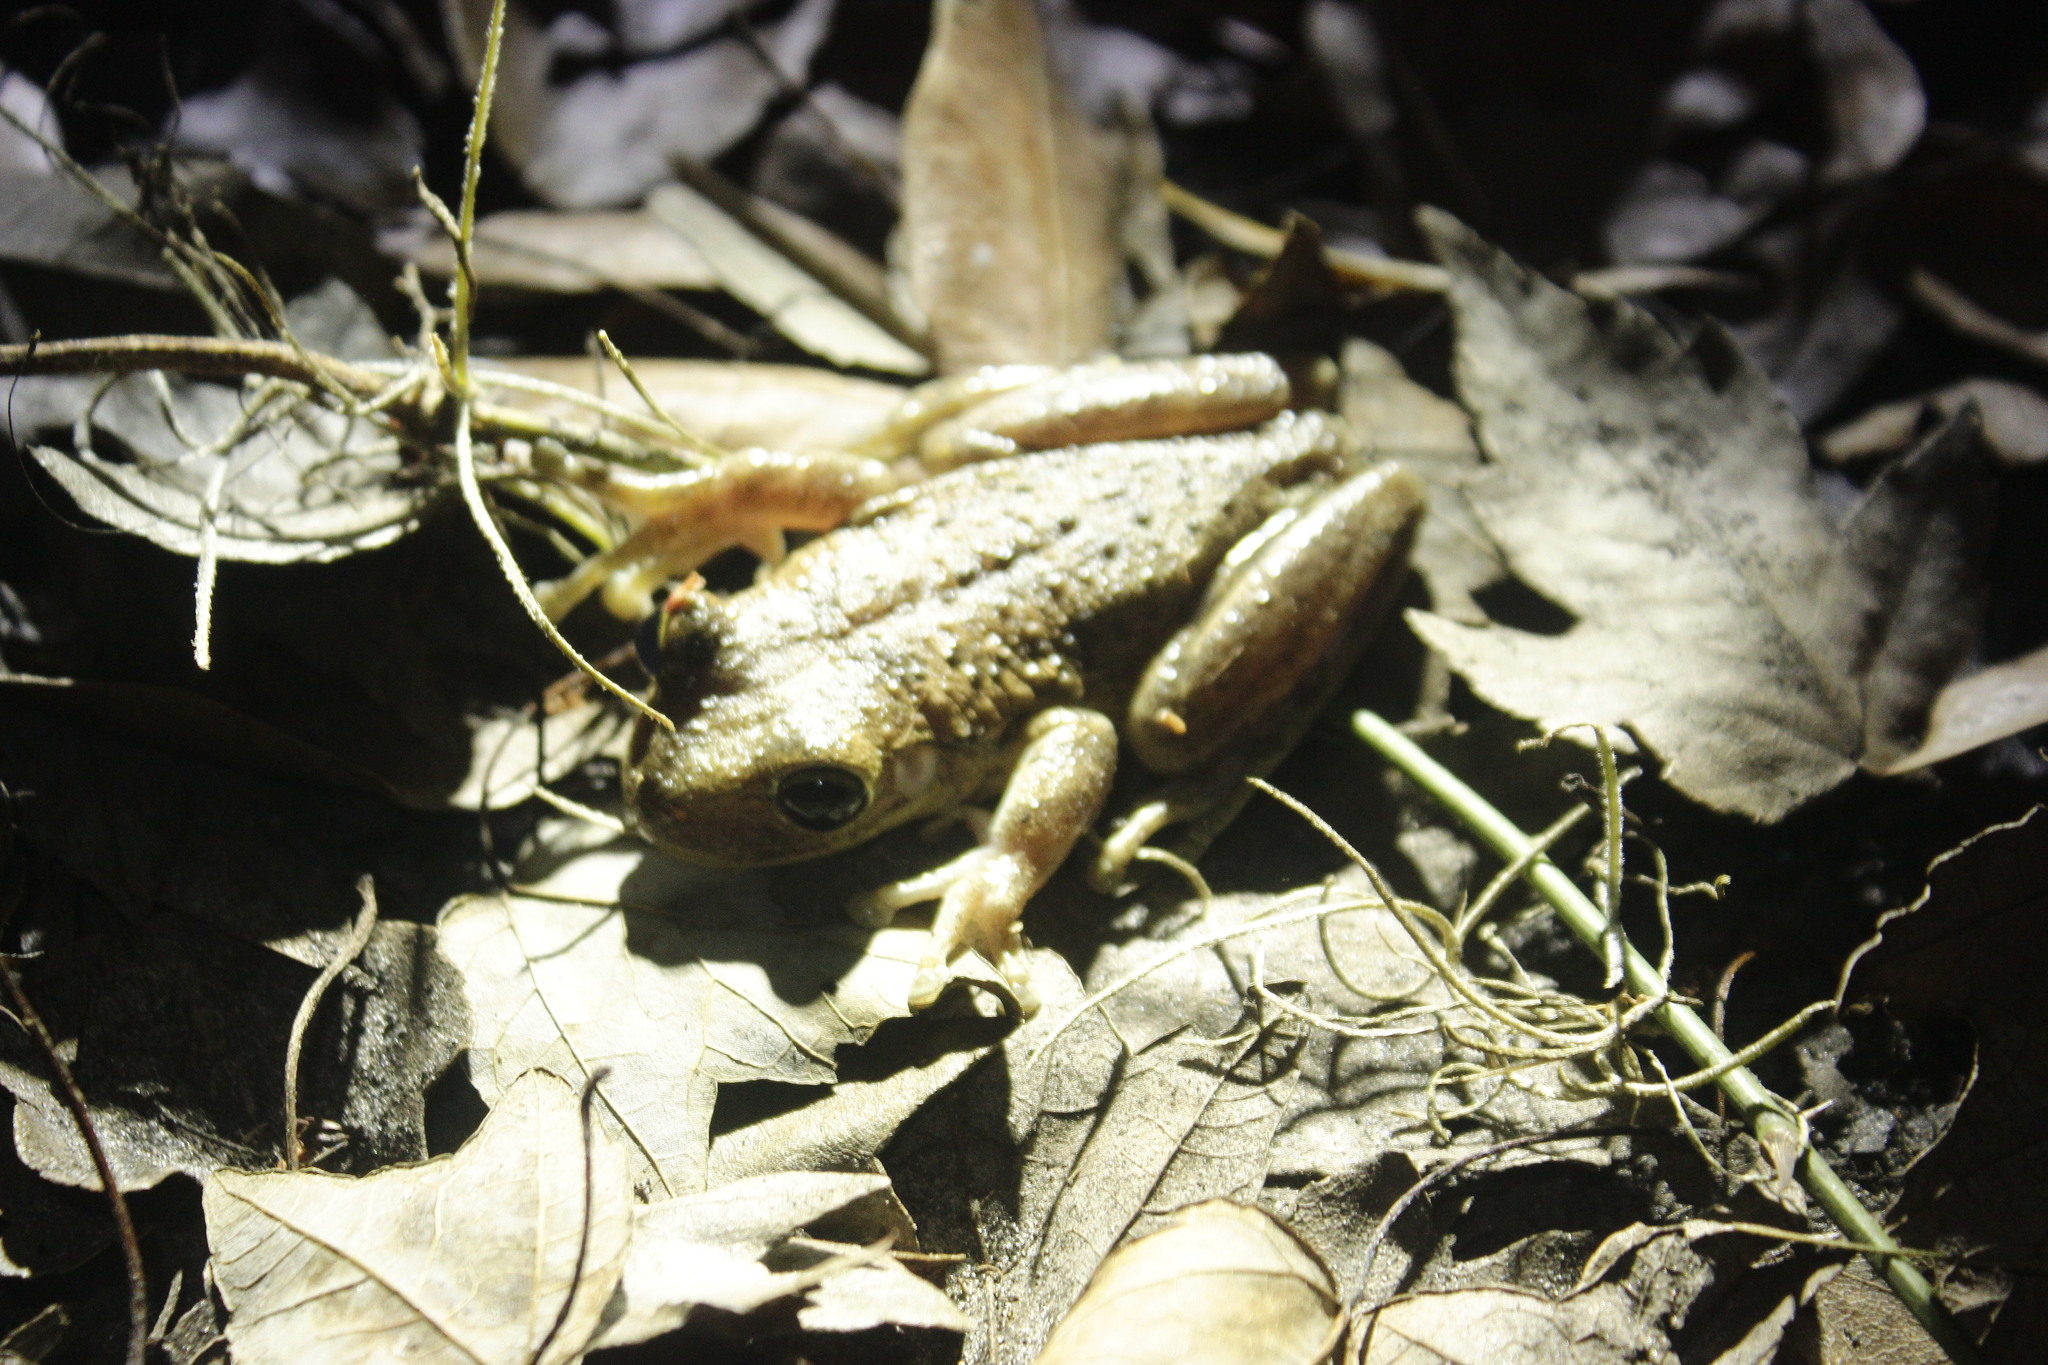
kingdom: Animalia
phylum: Chordata
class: Amphibia
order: Anura
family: Hylidae
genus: Osteopilus
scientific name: Osteopilus septentrionalis
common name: Cuban treefrog
